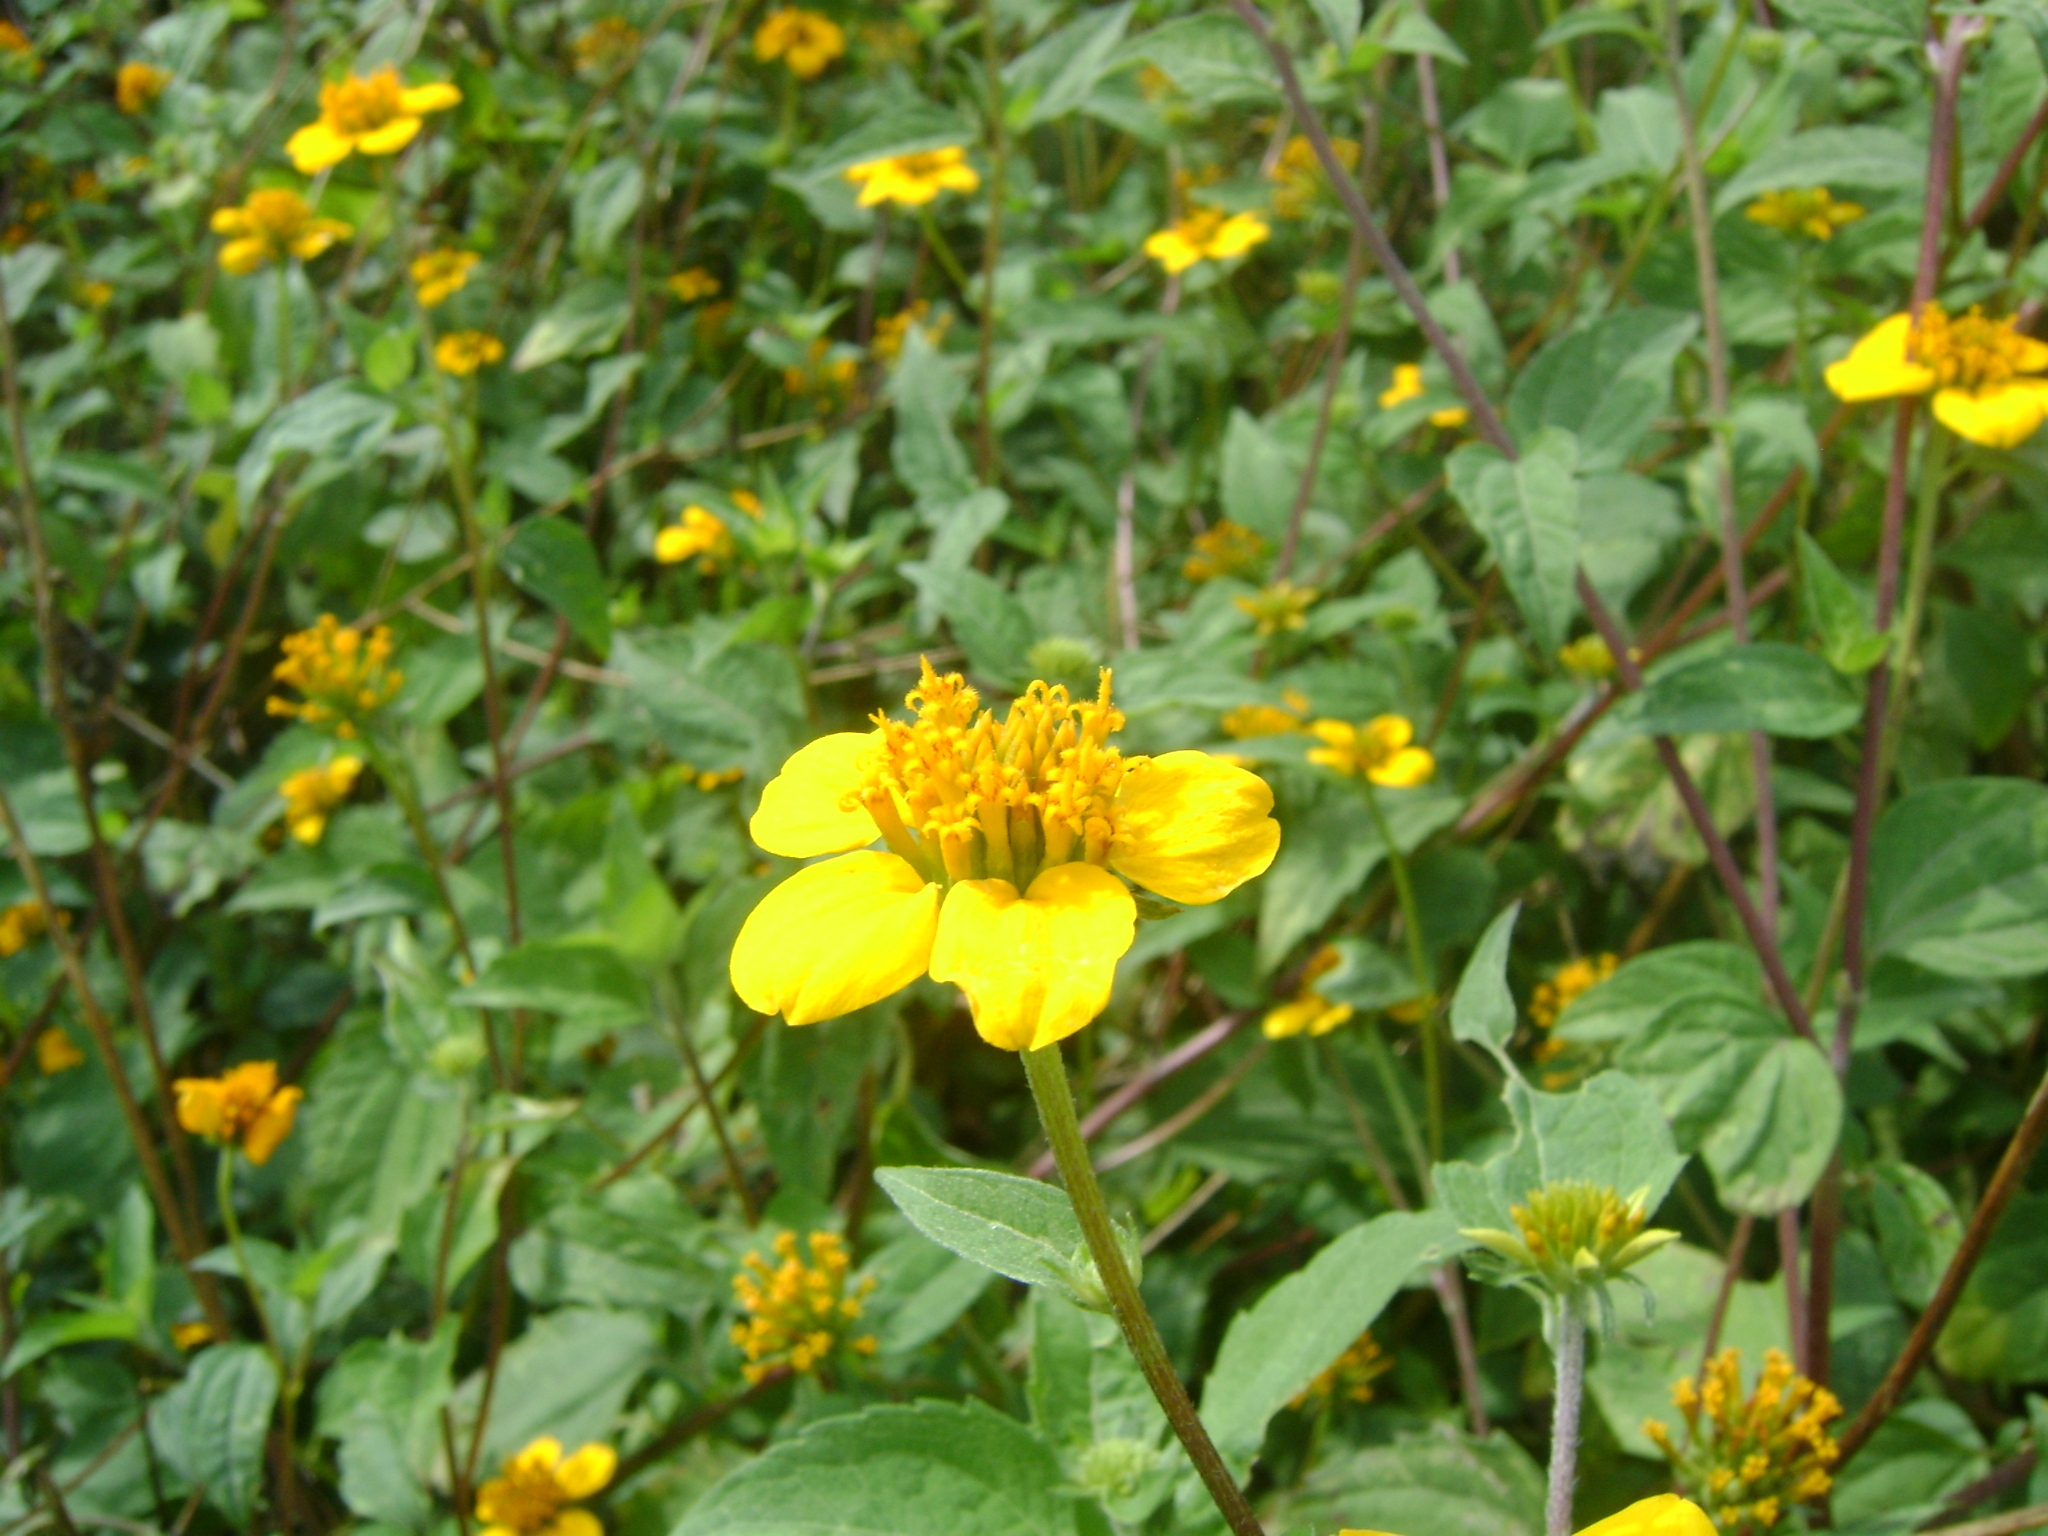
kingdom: Plantae
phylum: Tracheophyta
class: Magnoliopsida
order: Asterales
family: Asteraceae
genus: Sclerocarpus
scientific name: Sclerocarpus uniserialis
